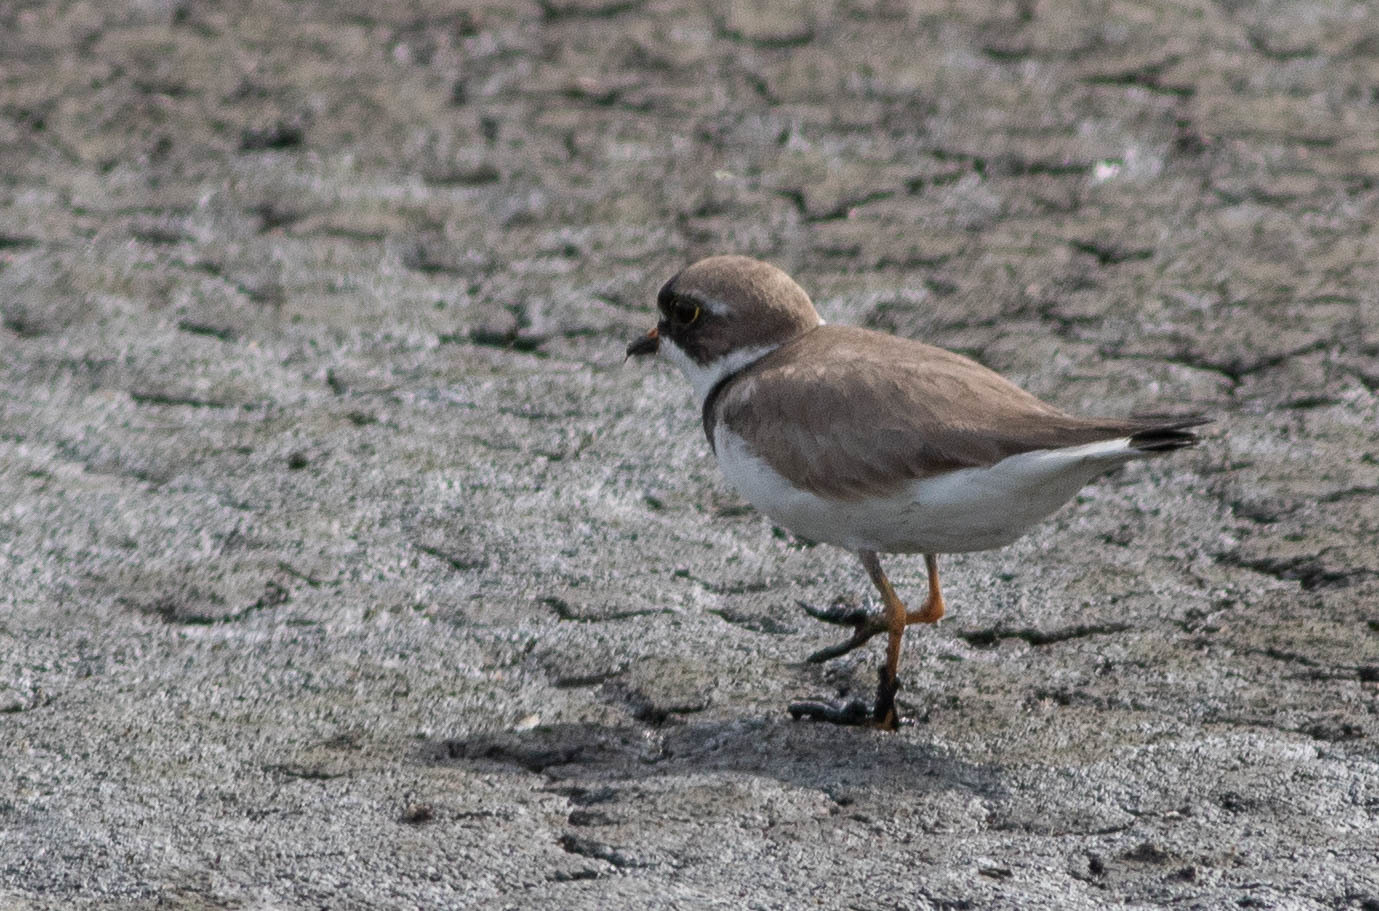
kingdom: Animalia
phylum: Chordata
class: Aves
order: Charadriiformes
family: Charadriidae
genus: Charadrius
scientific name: Charadrius semipalmatus
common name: Semipalmated plover
